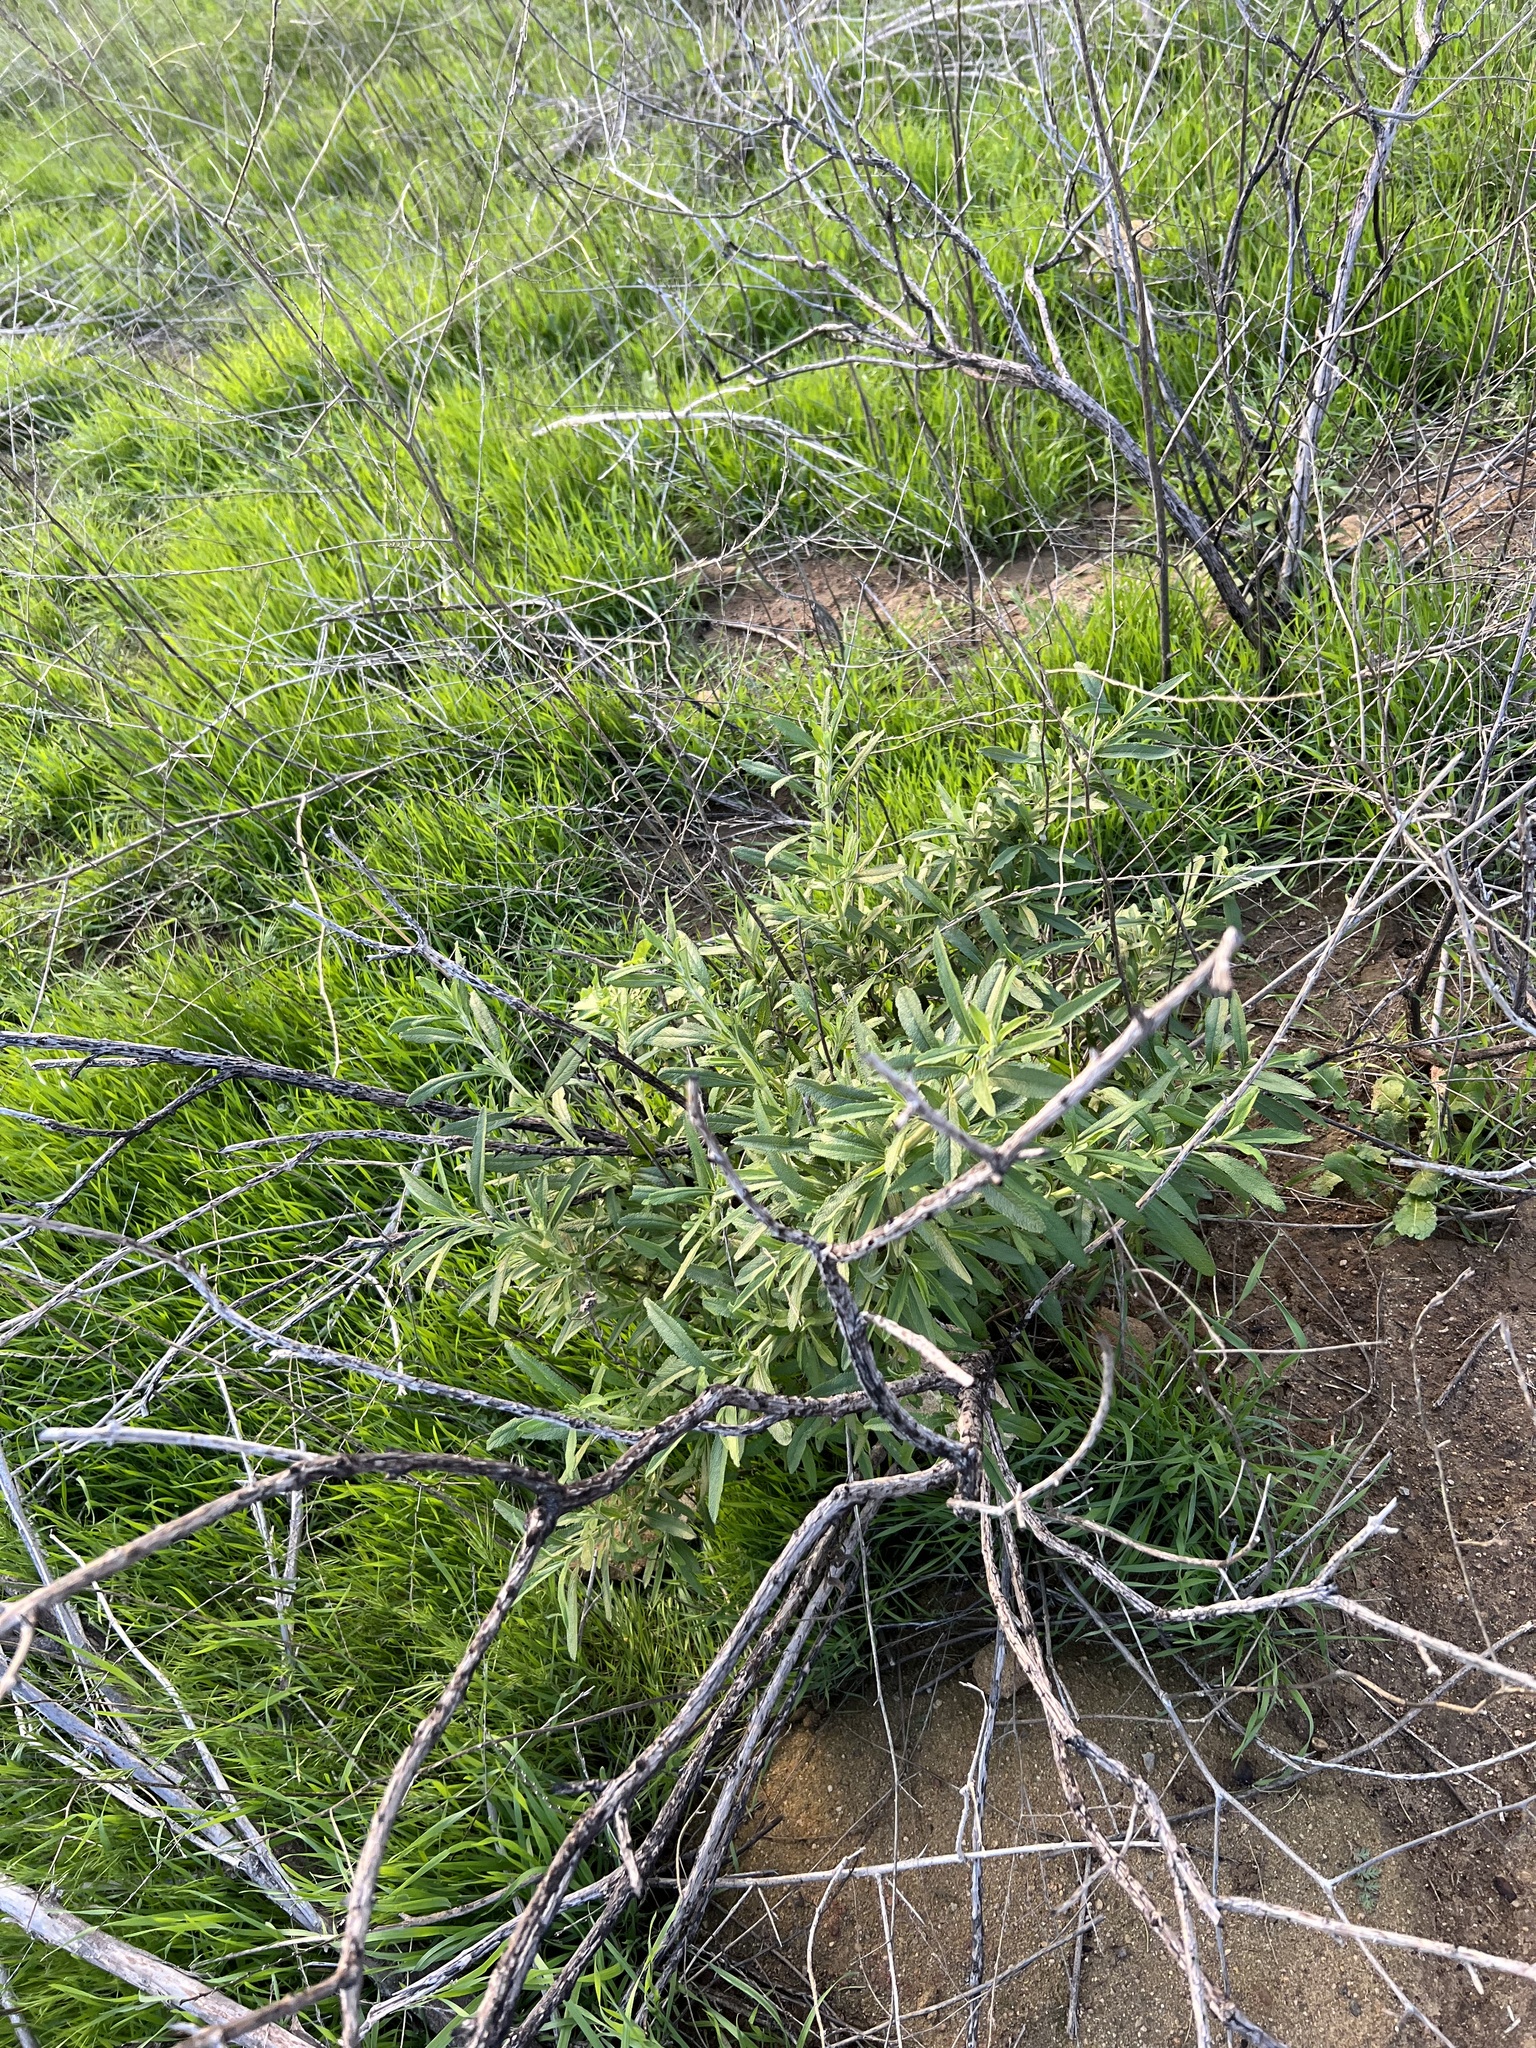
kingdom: Plantae
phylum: Tracheophyta
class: Magnoliopsida
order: Lamiales
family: Lamiaceae
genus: Salvia
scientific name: Salvia mellifera
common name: Black sage
